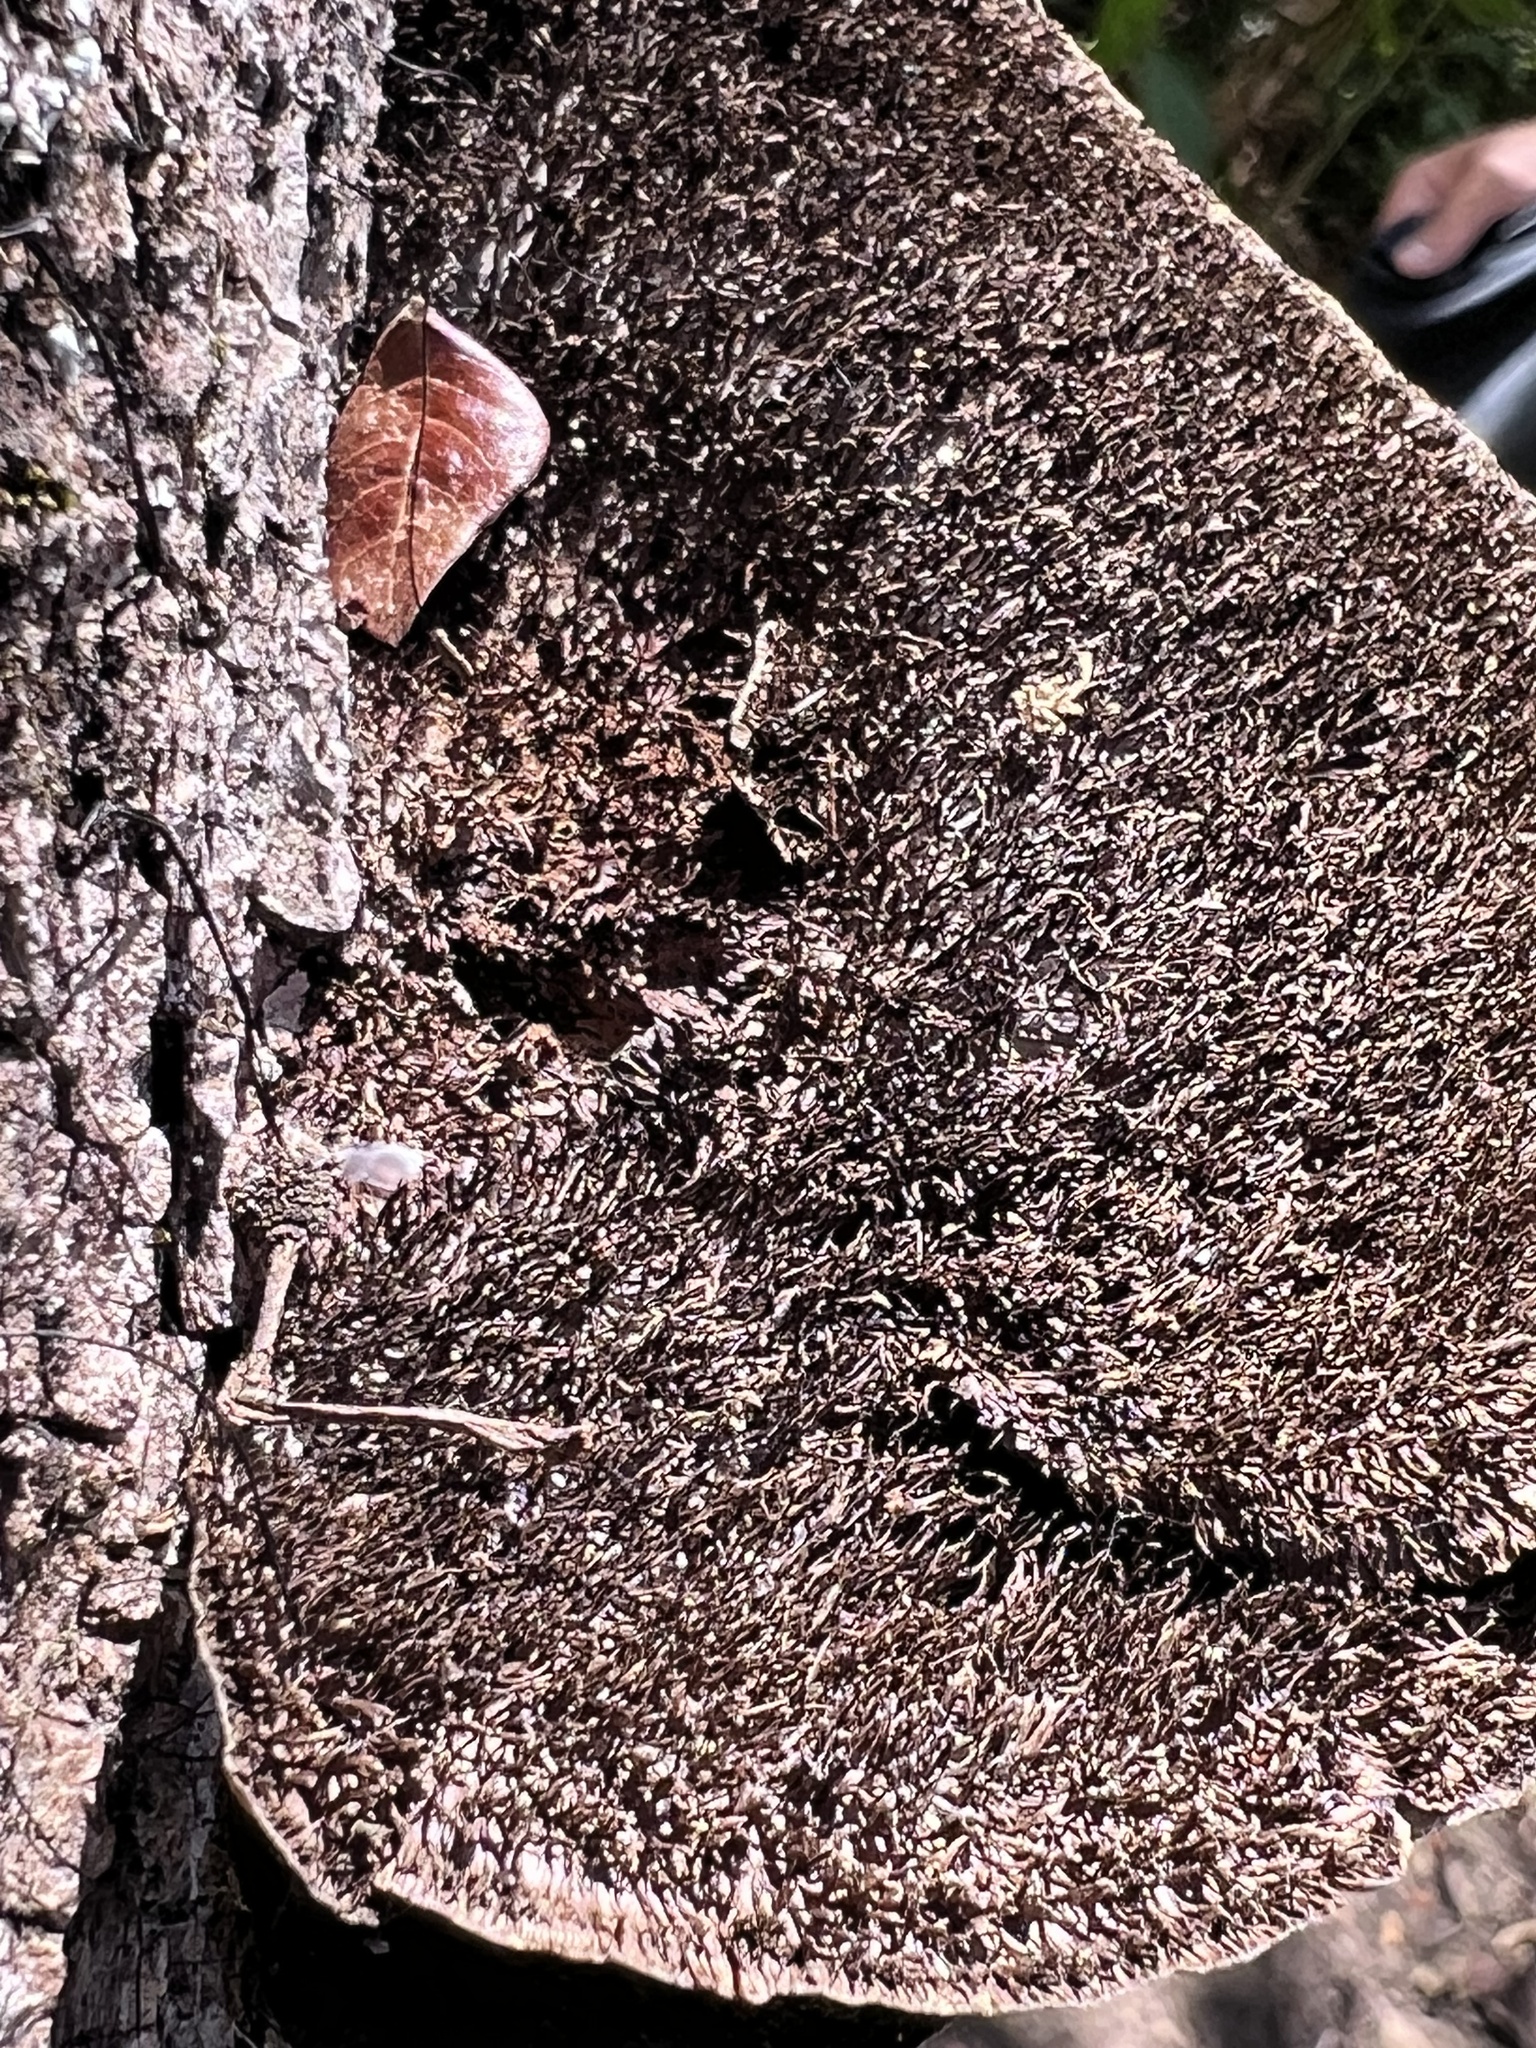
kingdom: Fungi
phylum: Basidiomycota
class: Agaricomycetes
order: Polyporales
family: Cerrenaceae
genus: Cerrena
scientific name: Cerrena hydnoides
